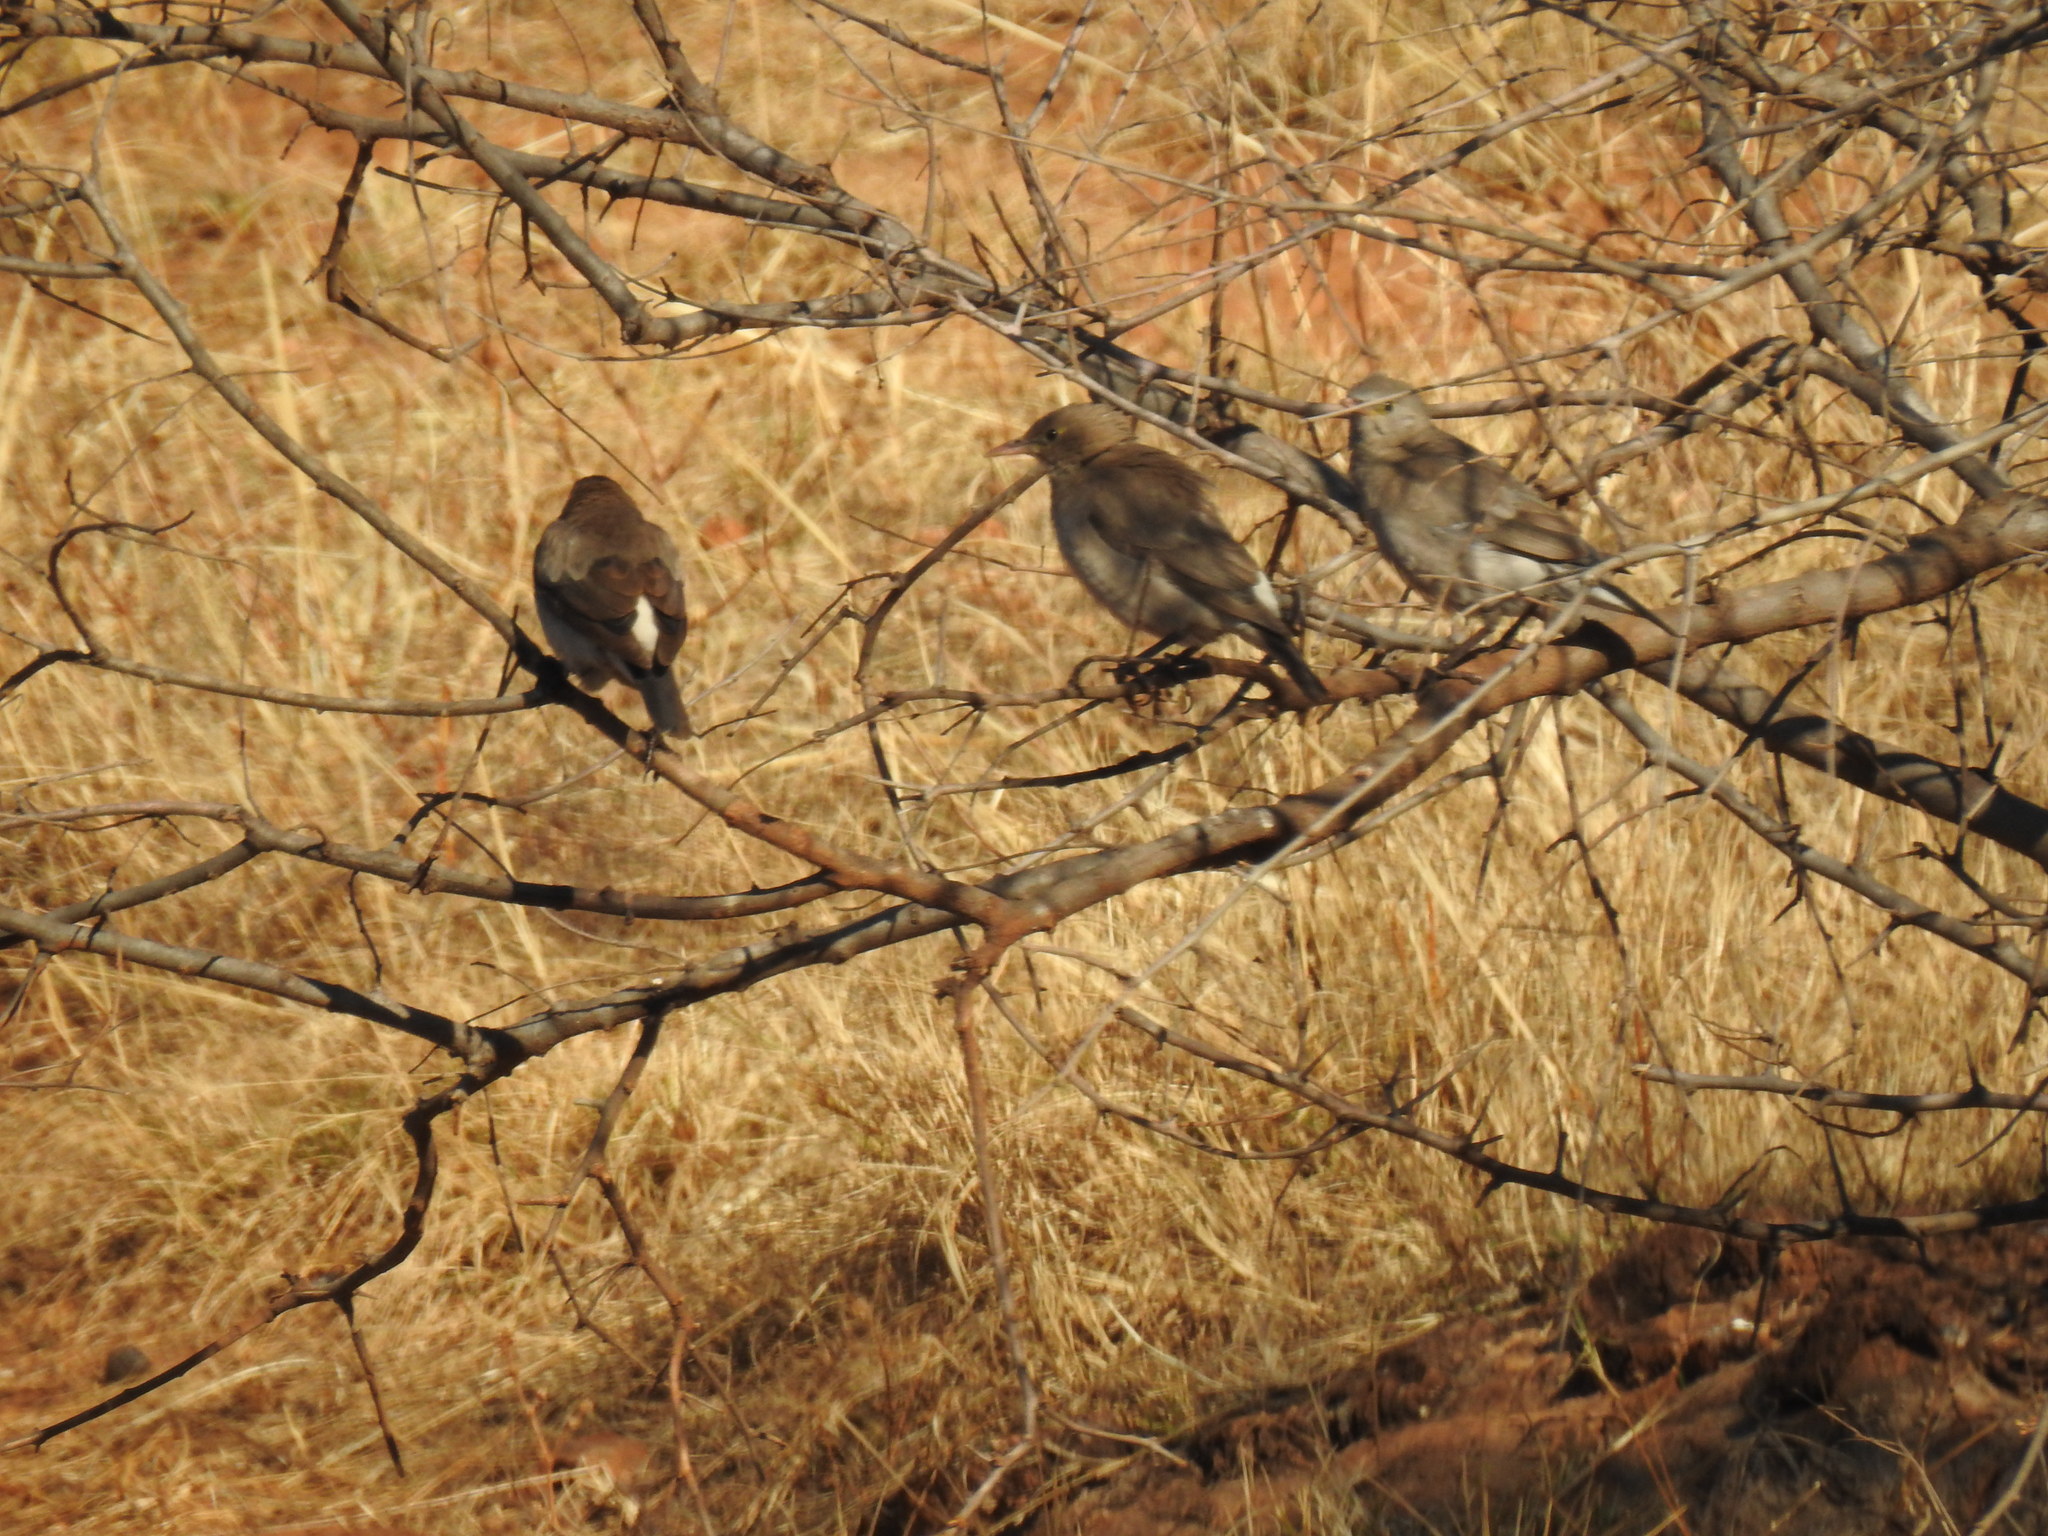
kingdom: Animalia
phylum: Chordata
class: Aves
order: Passeriformes
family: Sturnidae
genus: Creatophora
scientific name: Creatophora cinerea
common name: Wattled starling
